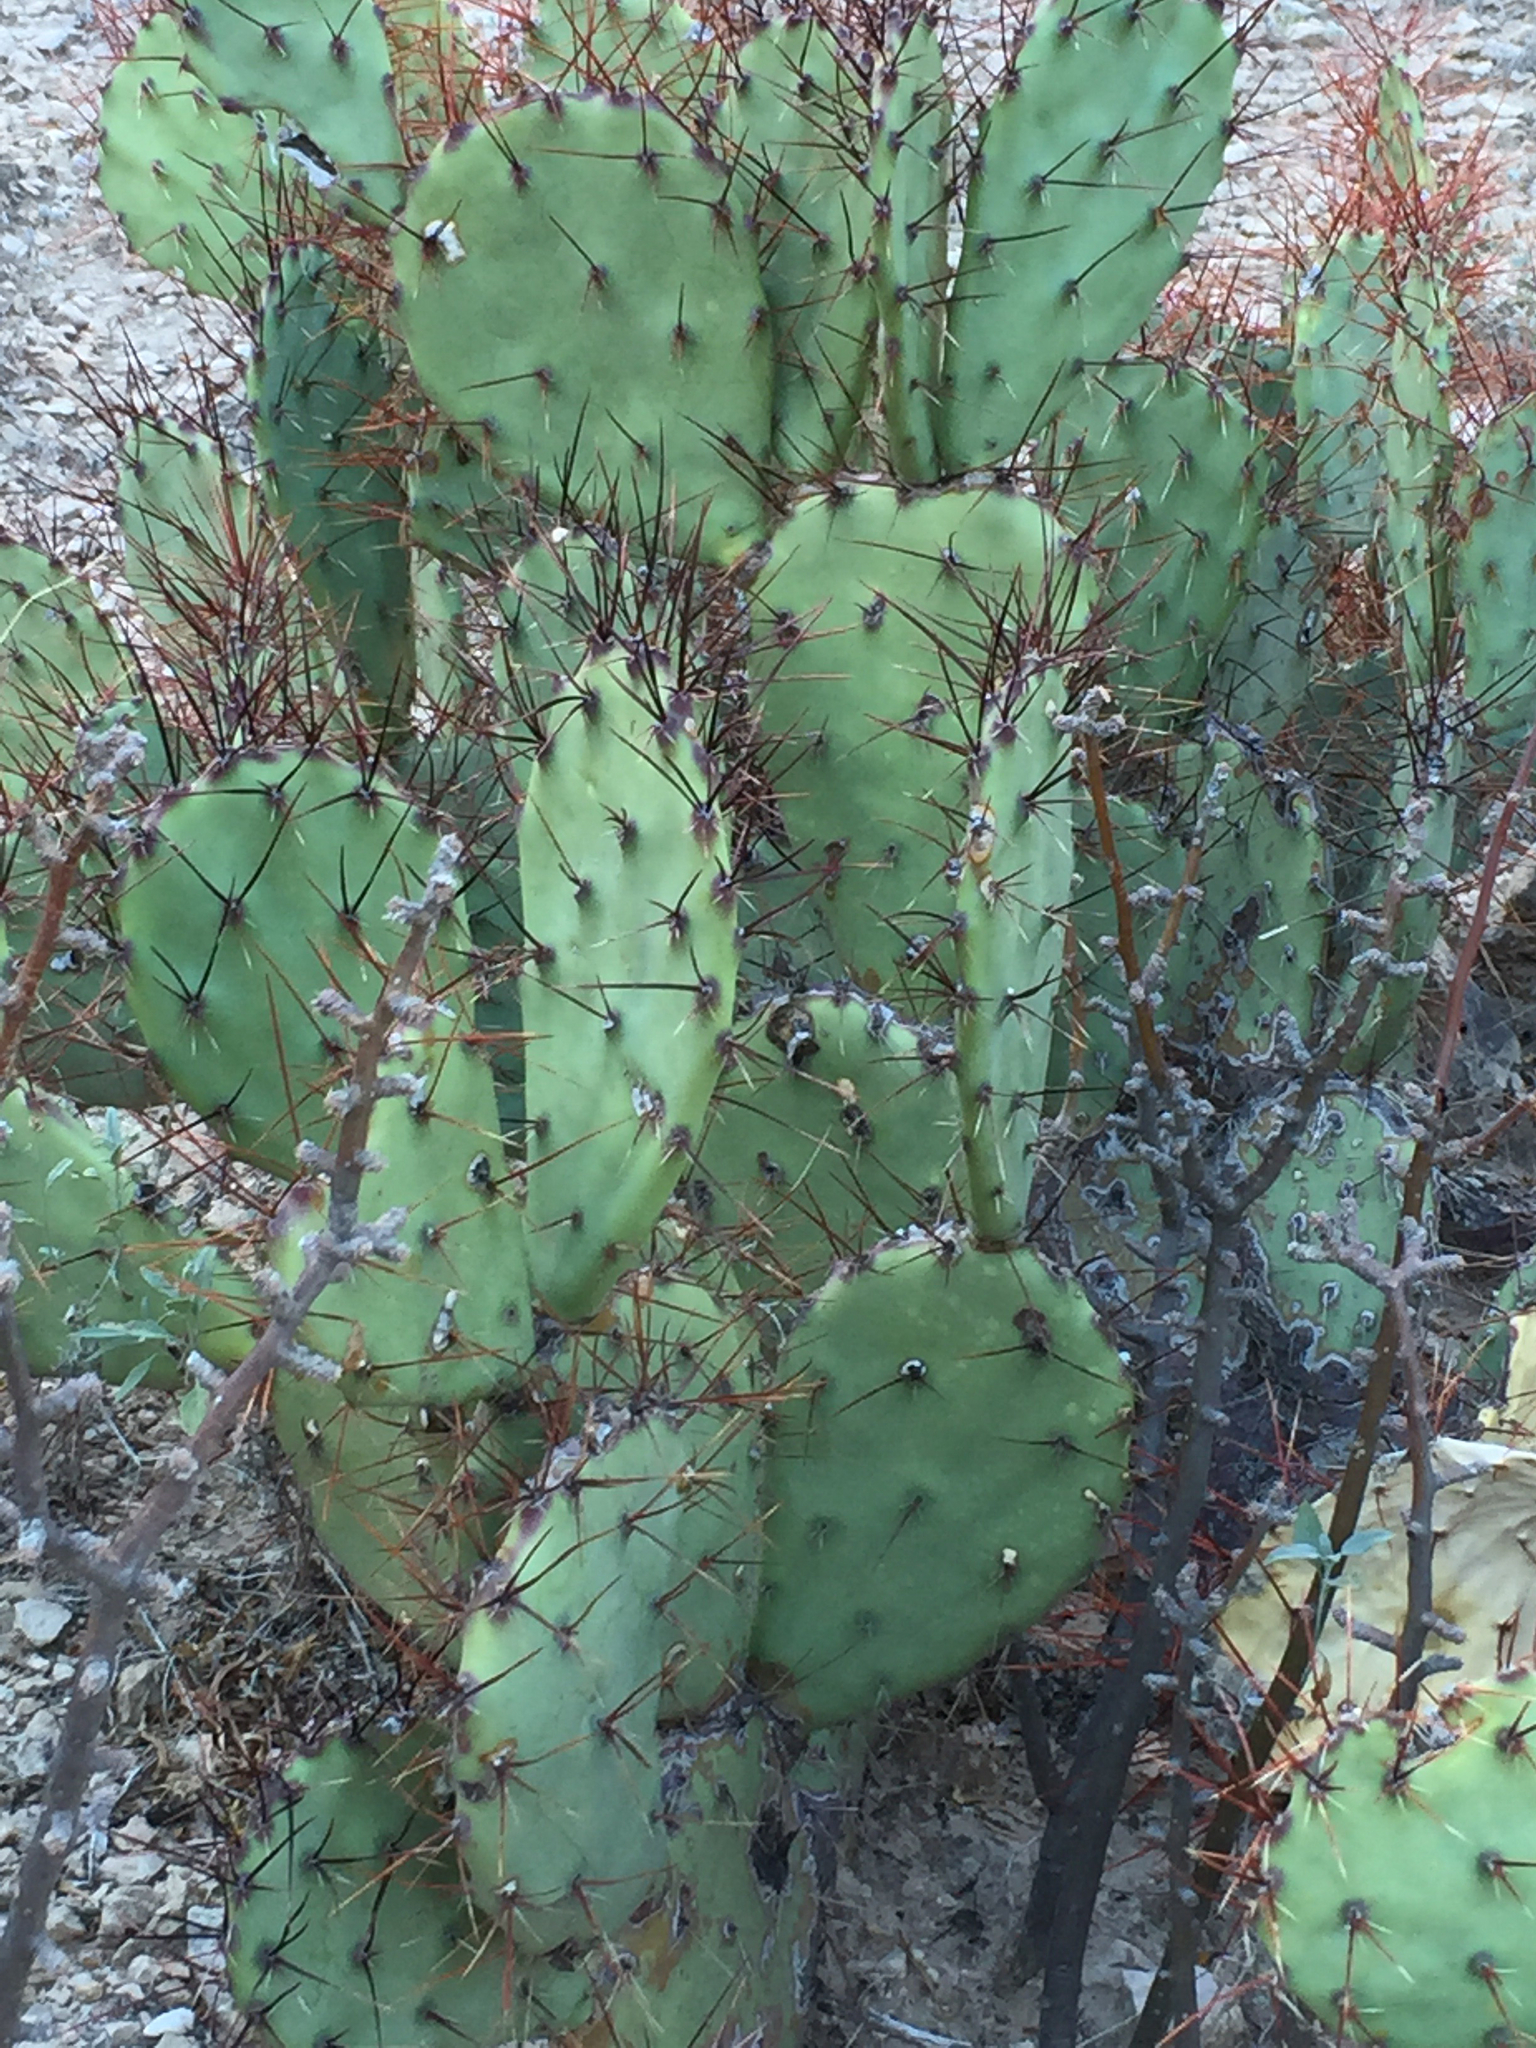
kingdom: Plantae
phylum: Tracheophyta
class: Magnoliopsida
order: Caryophyllales
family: Cactaceae
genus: Opuntia
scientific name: Opuntia spinosibacca
